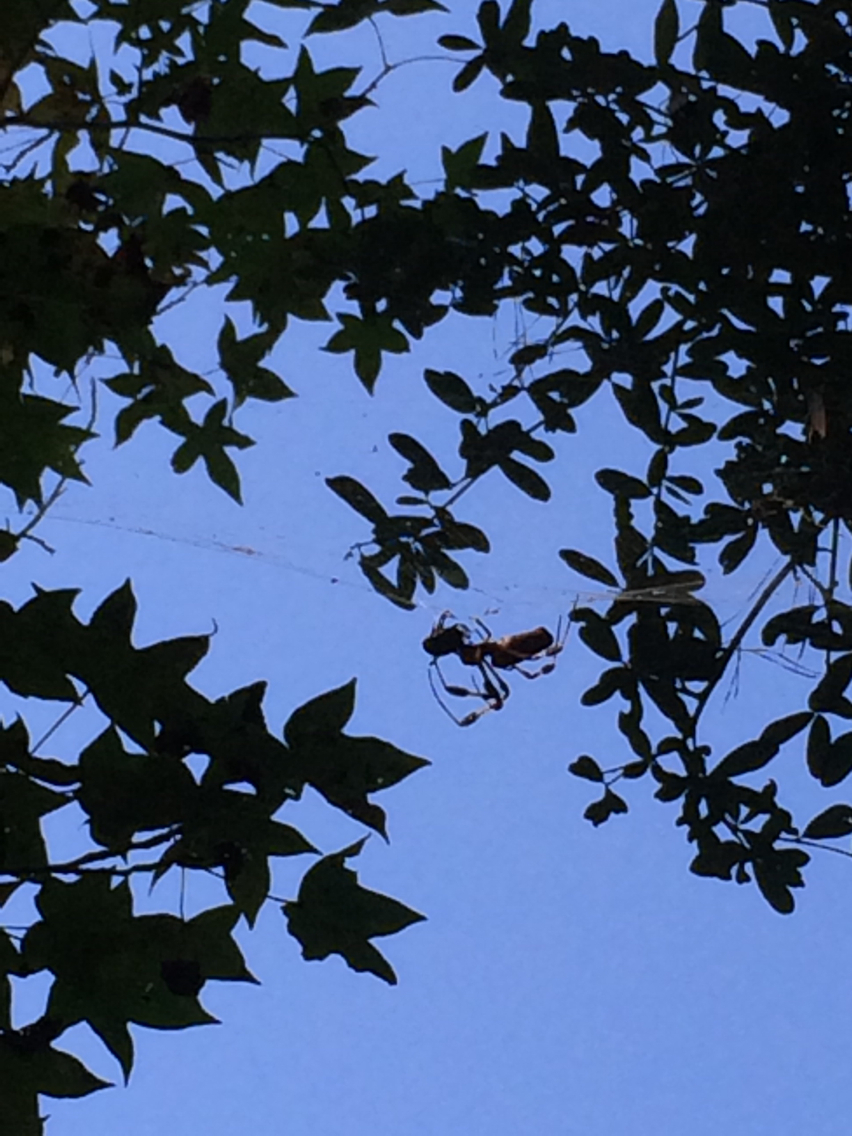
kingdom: Animalia
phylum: Arthropoda
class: Arachnida
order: Araneae
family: Araneidae
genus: Trichonephila
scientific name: Trichonephila clavipes
